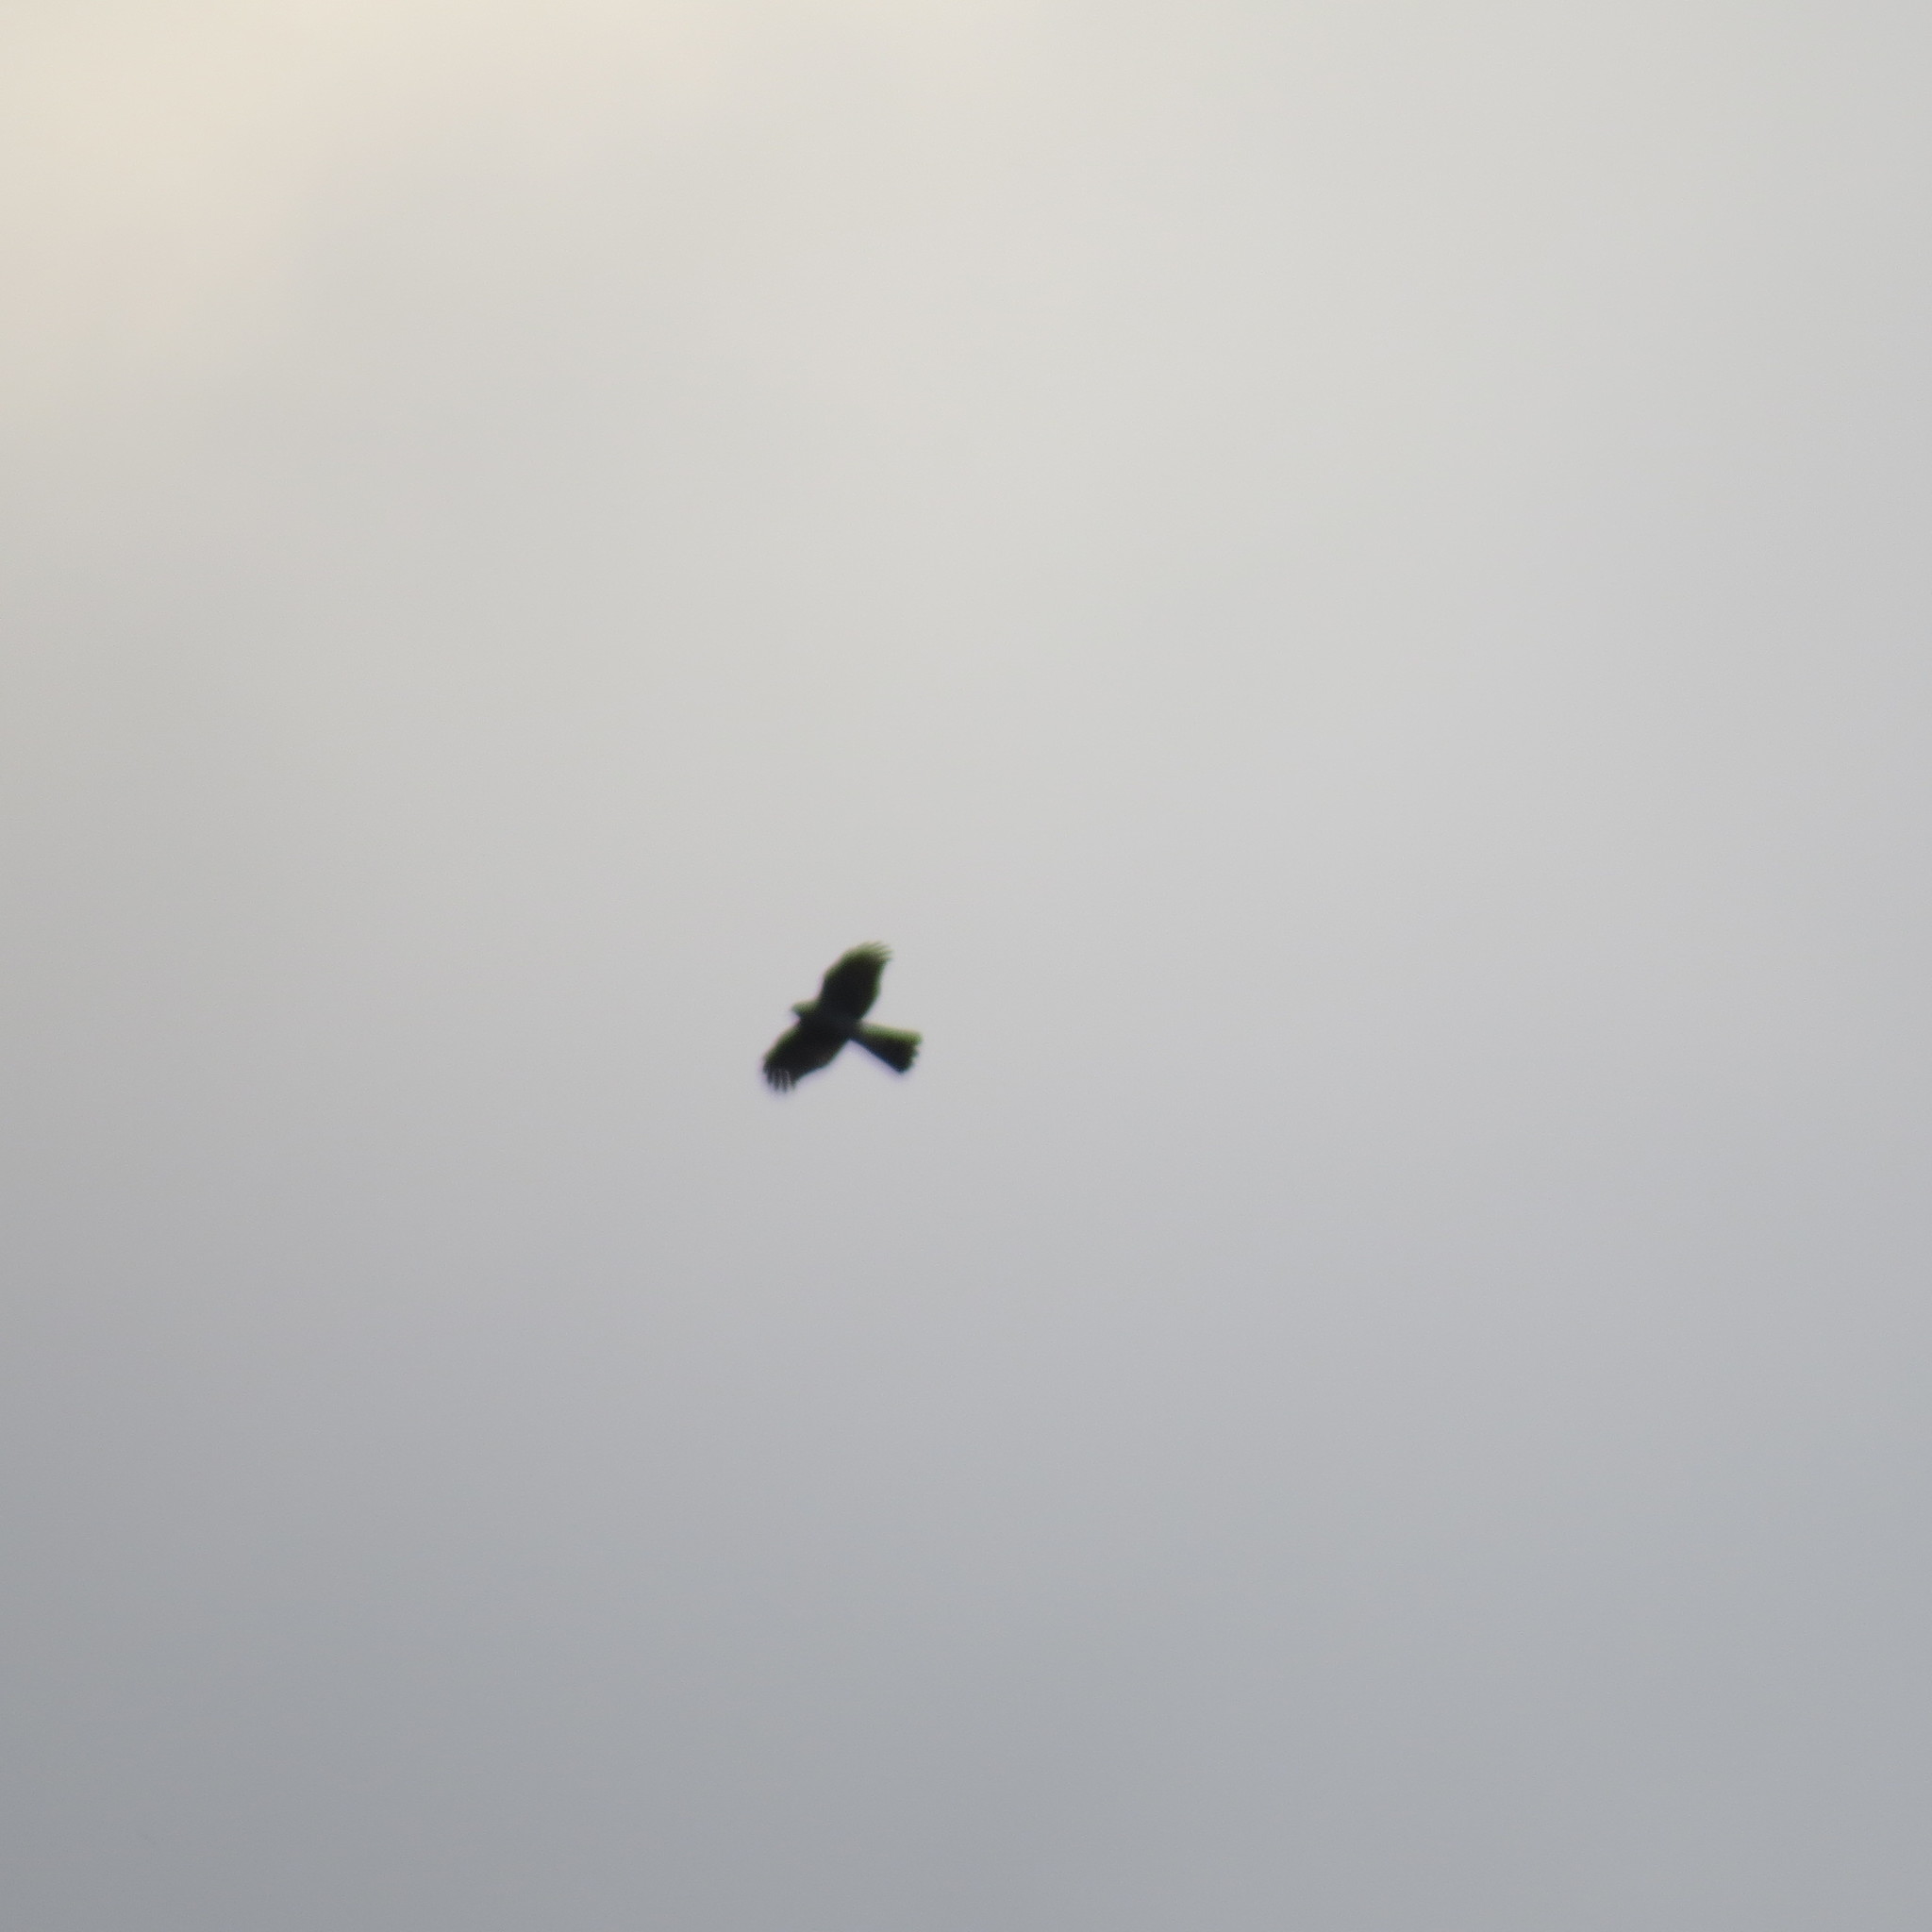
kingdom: Animalia
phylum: Chordata
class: Aves
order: Accipitriformes
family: Accipitridae
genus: Accipiter
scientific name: Accipiter nisus
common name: Eurasian sparrowhawk
